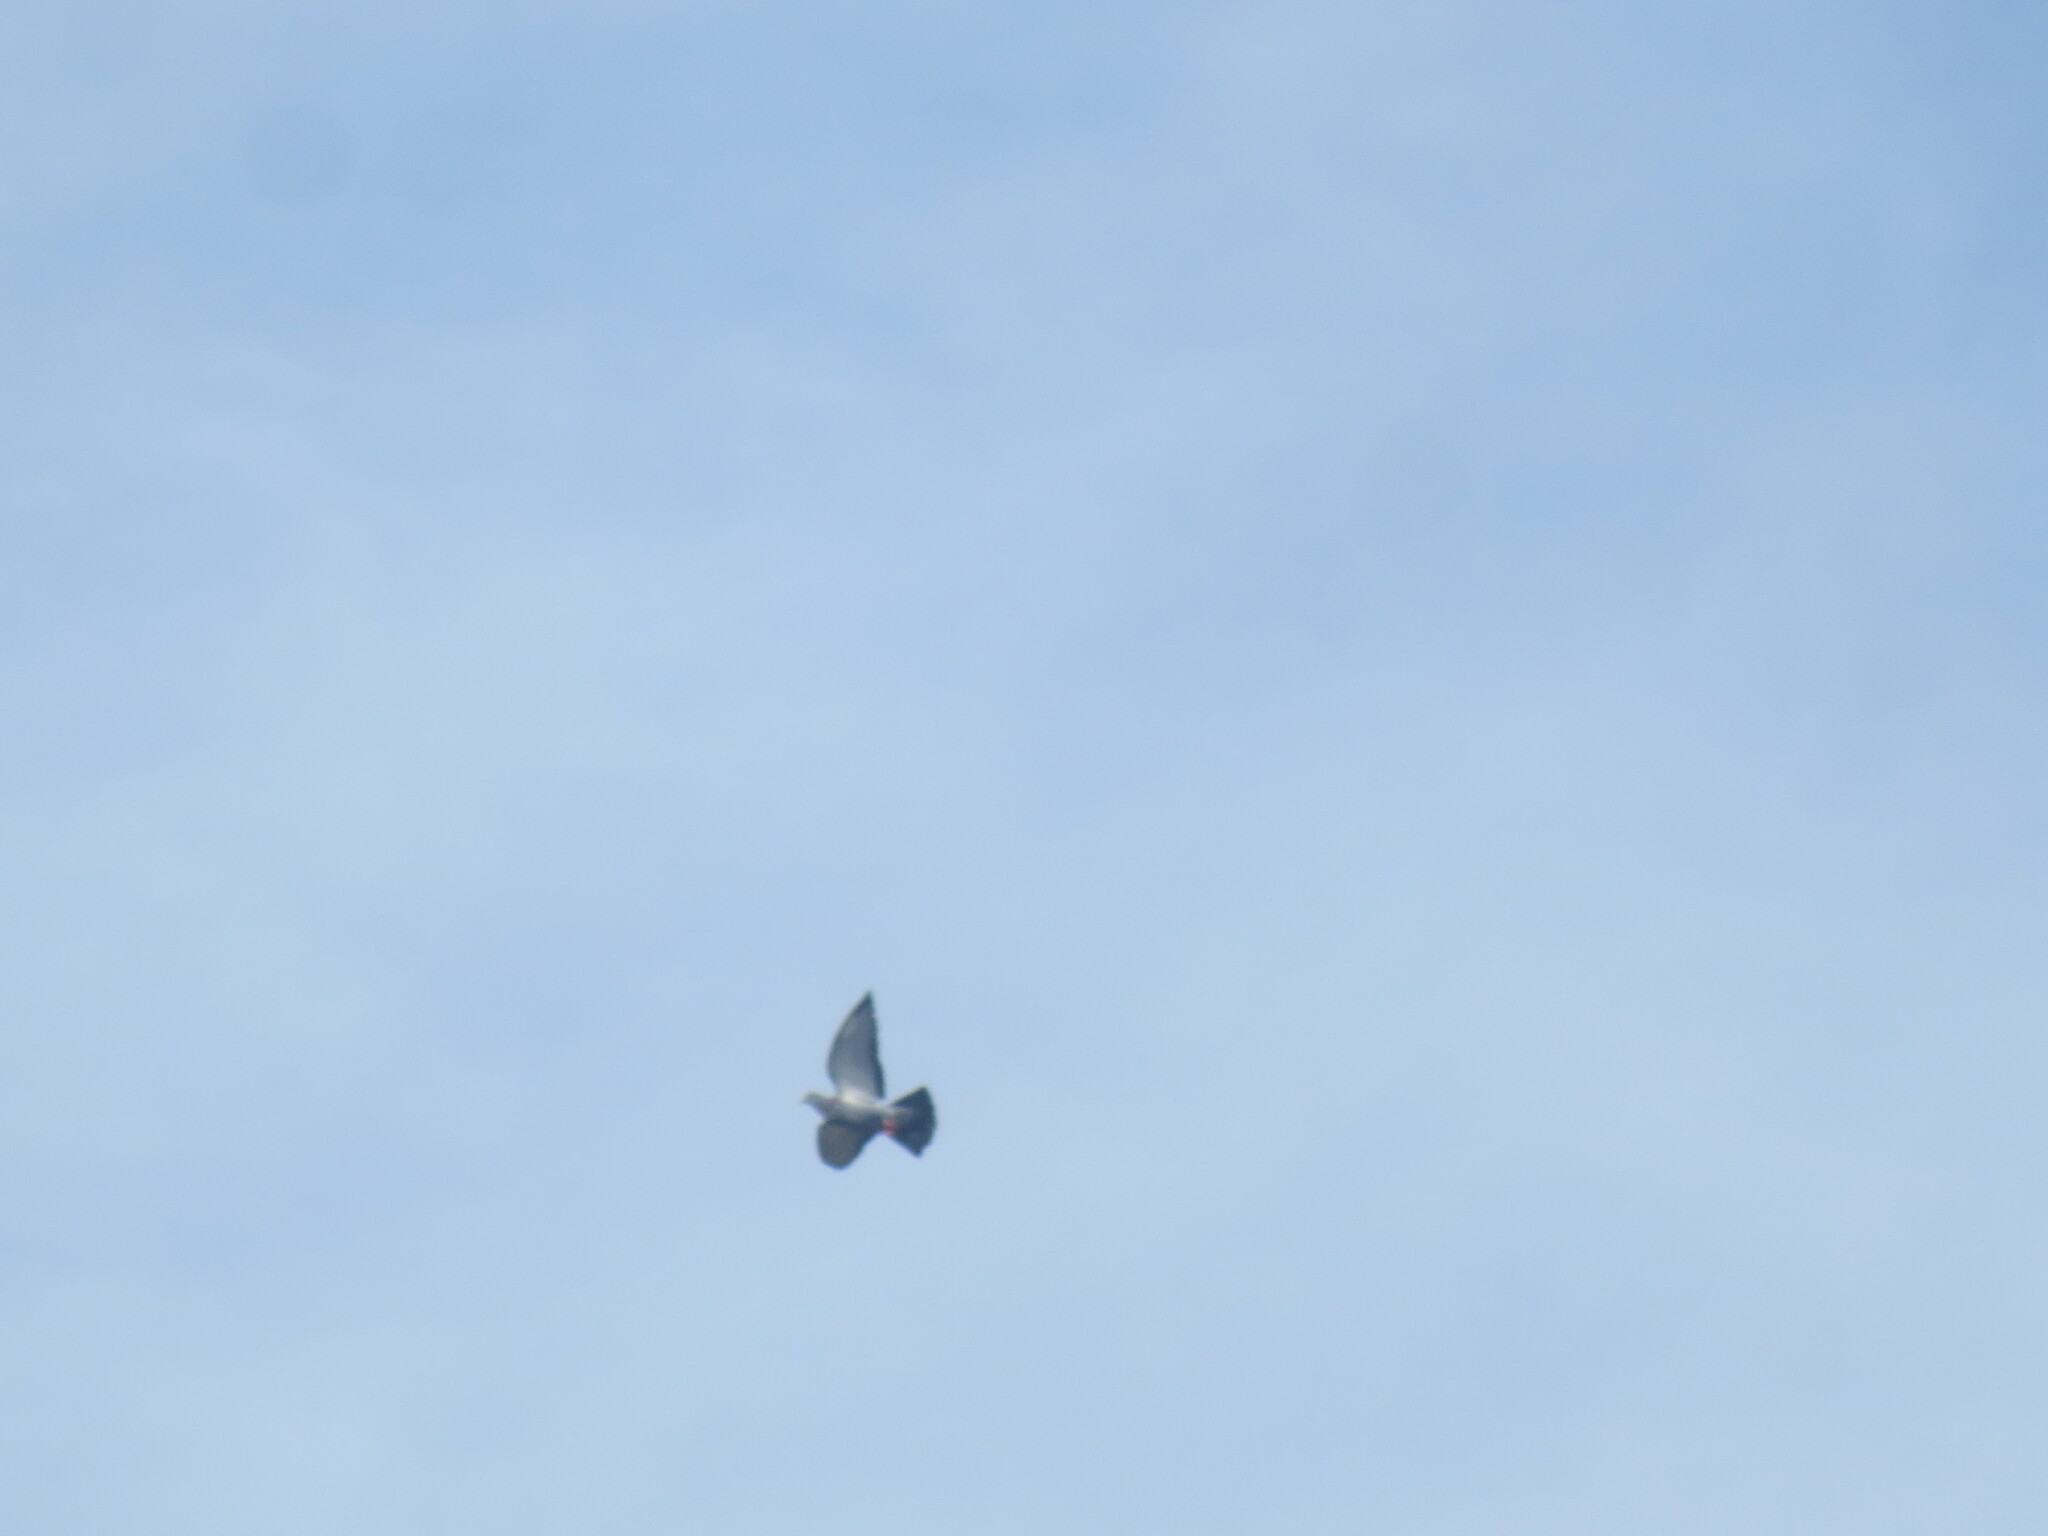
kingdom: Animalia
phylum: Chordata
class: Aves
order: Columbiformes
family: Columbidae
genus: Columba
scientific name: Columba livia
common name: Rock pigeon
